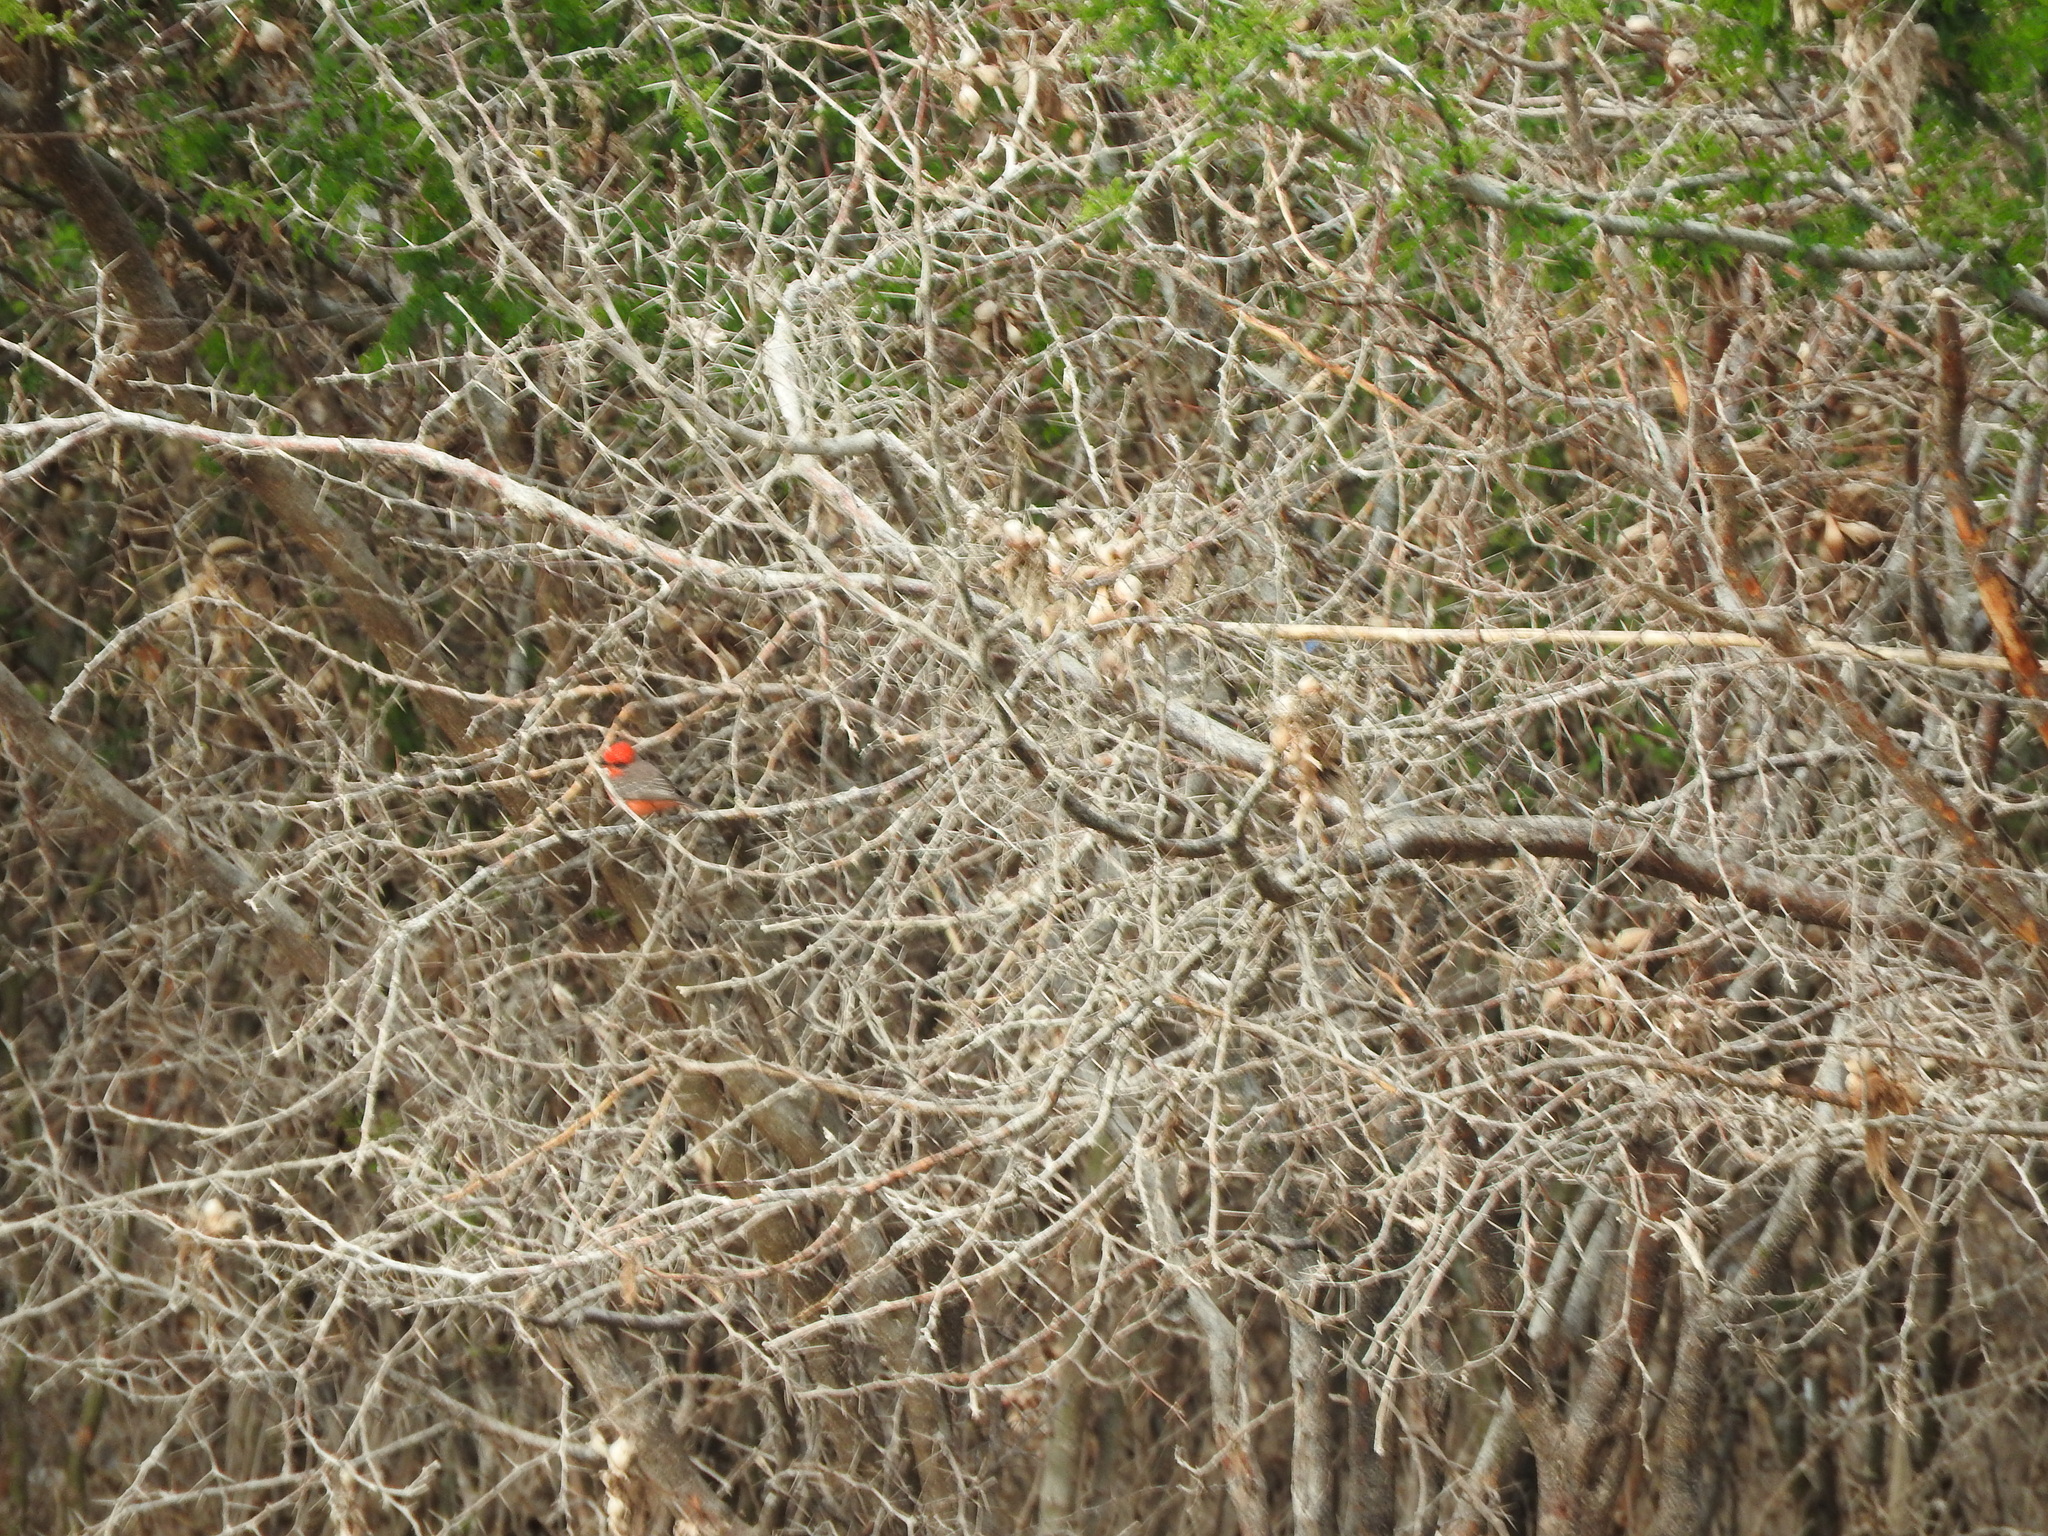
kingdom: Animalia
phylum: Chordata
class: Aves
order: Passeriformes
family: Tyrannidae
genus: Pyrocephalus
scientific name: Pyrocephalus rubinus
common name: Vermilion flycatcher
